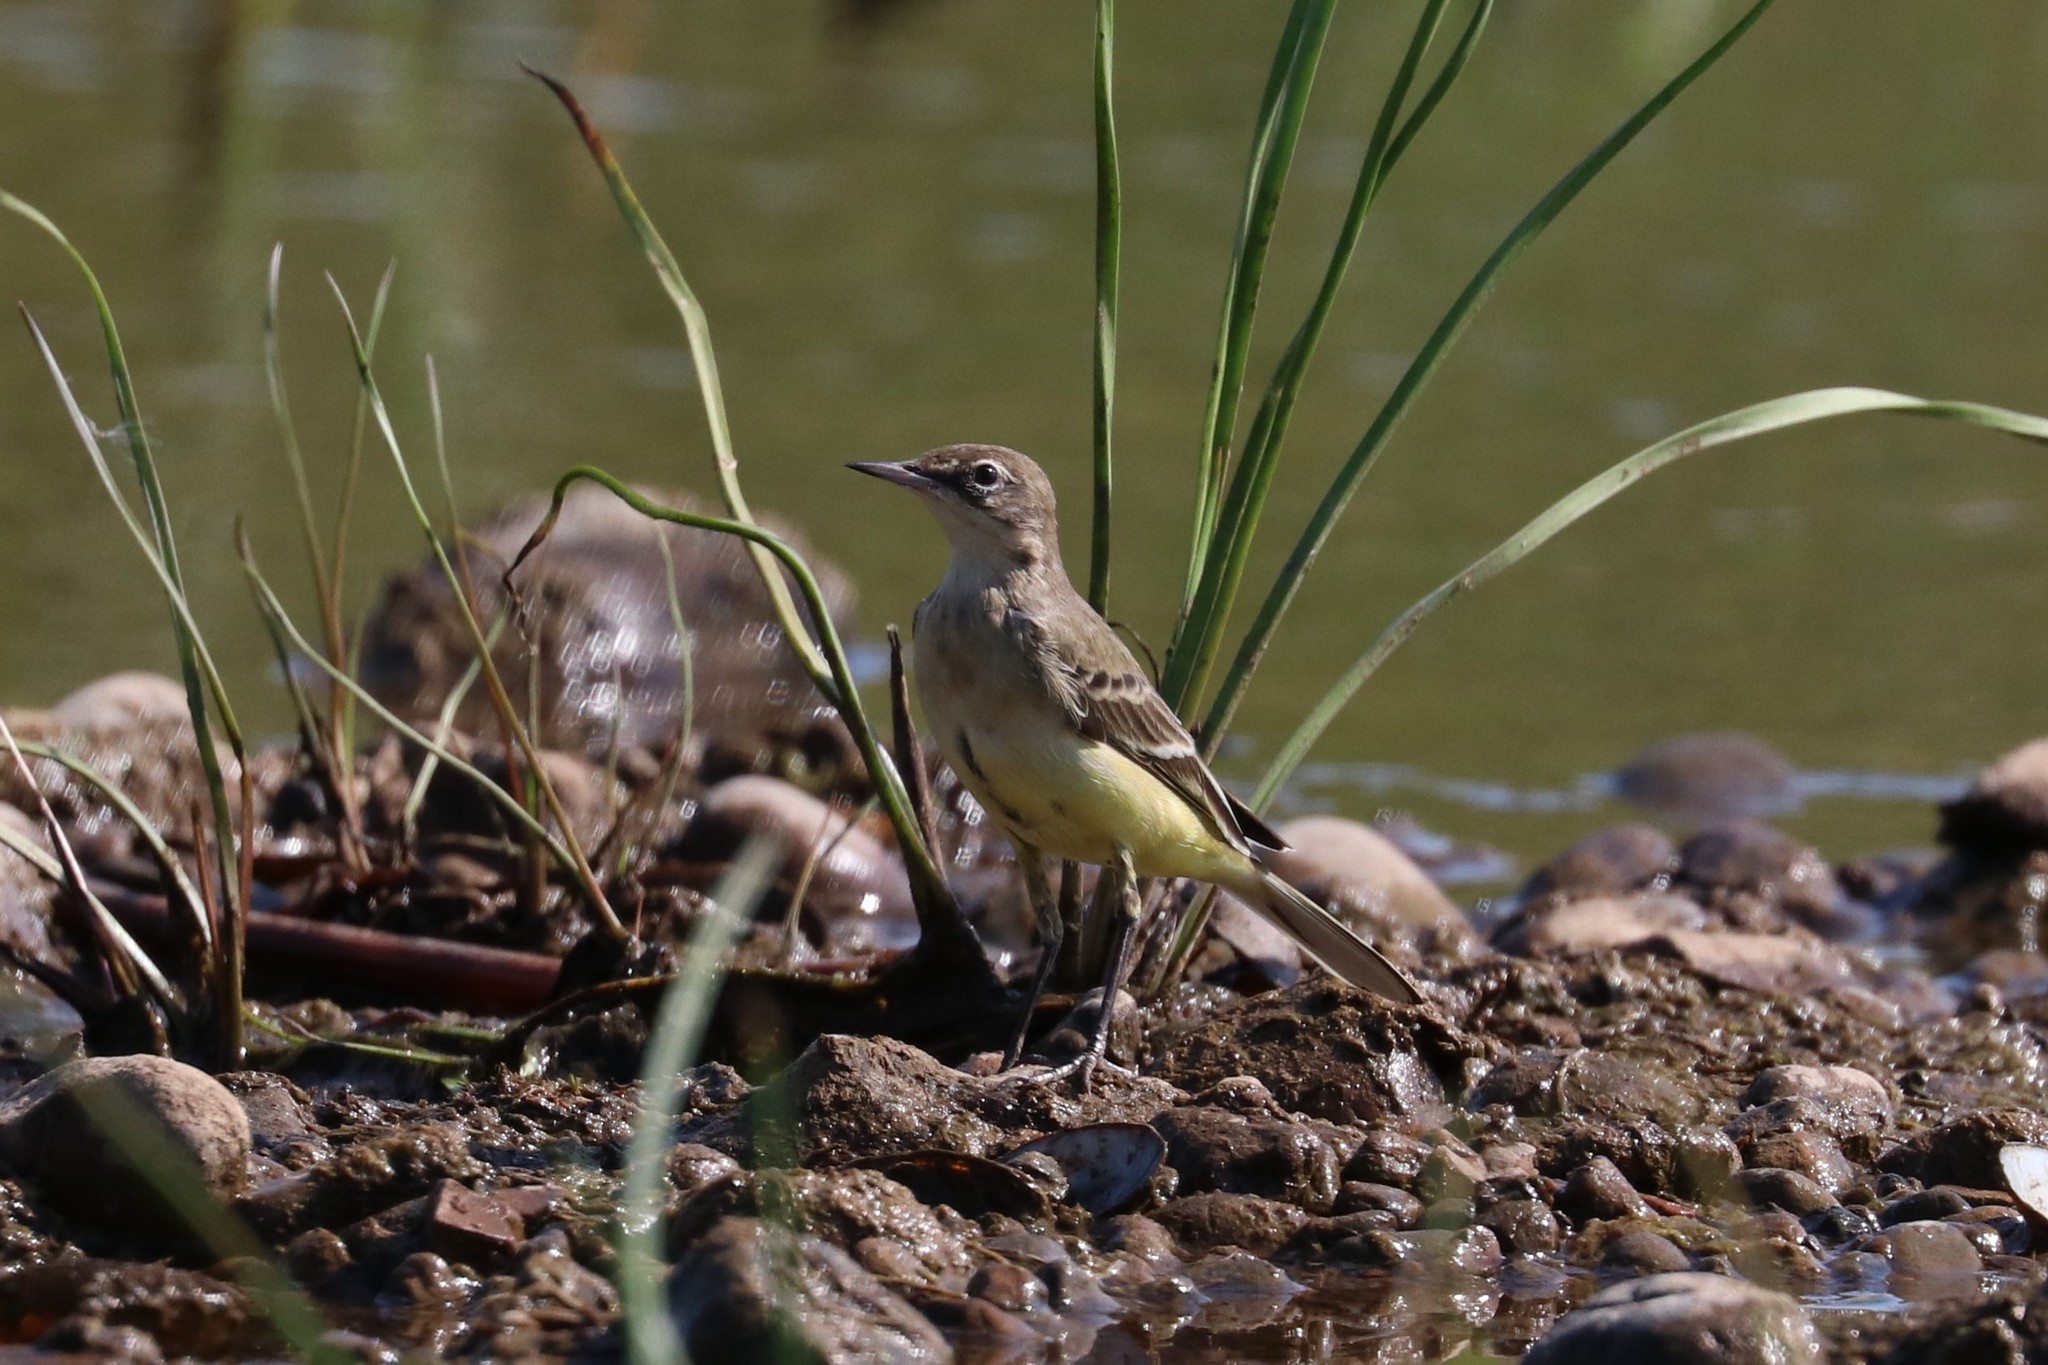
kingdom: Animalia
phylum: Chordata
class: Aves
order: Passeriformes
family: Motacillidae
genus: Motacilla
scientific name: Motacilla flava
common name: Western yellow wagtail
